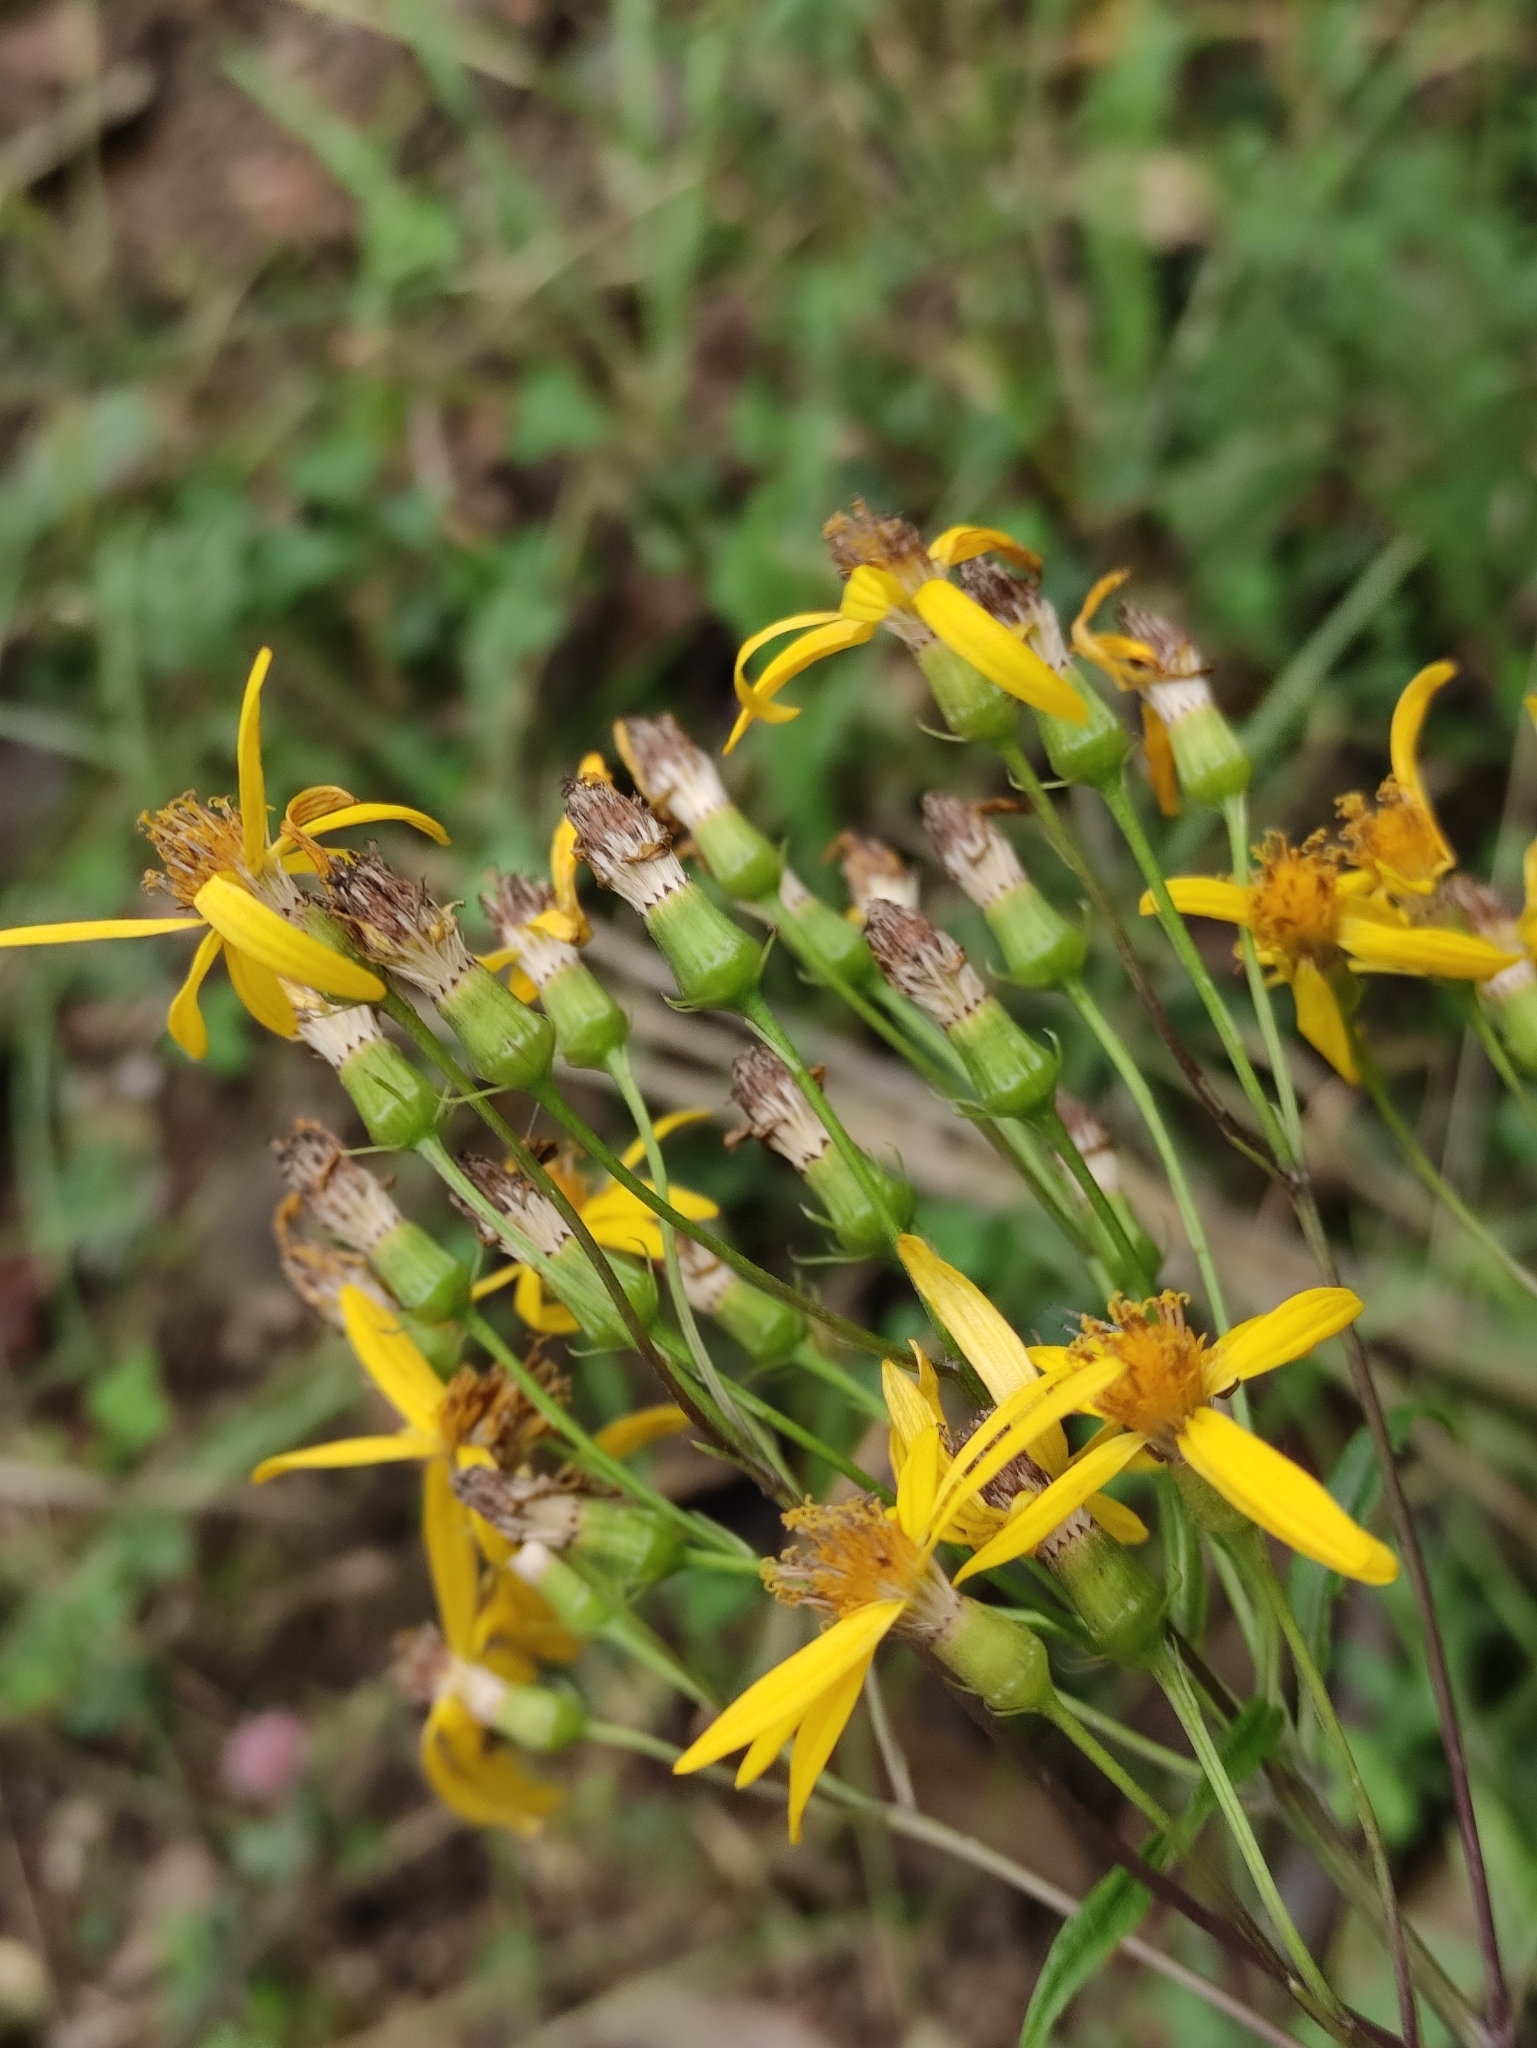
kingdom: Plantae
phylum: Tracheophyta
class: Magnoliopsida
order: Asterales
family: Asteraceae
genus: Senecio
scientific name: Senecio nemorensis
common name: Alpine ragwort
